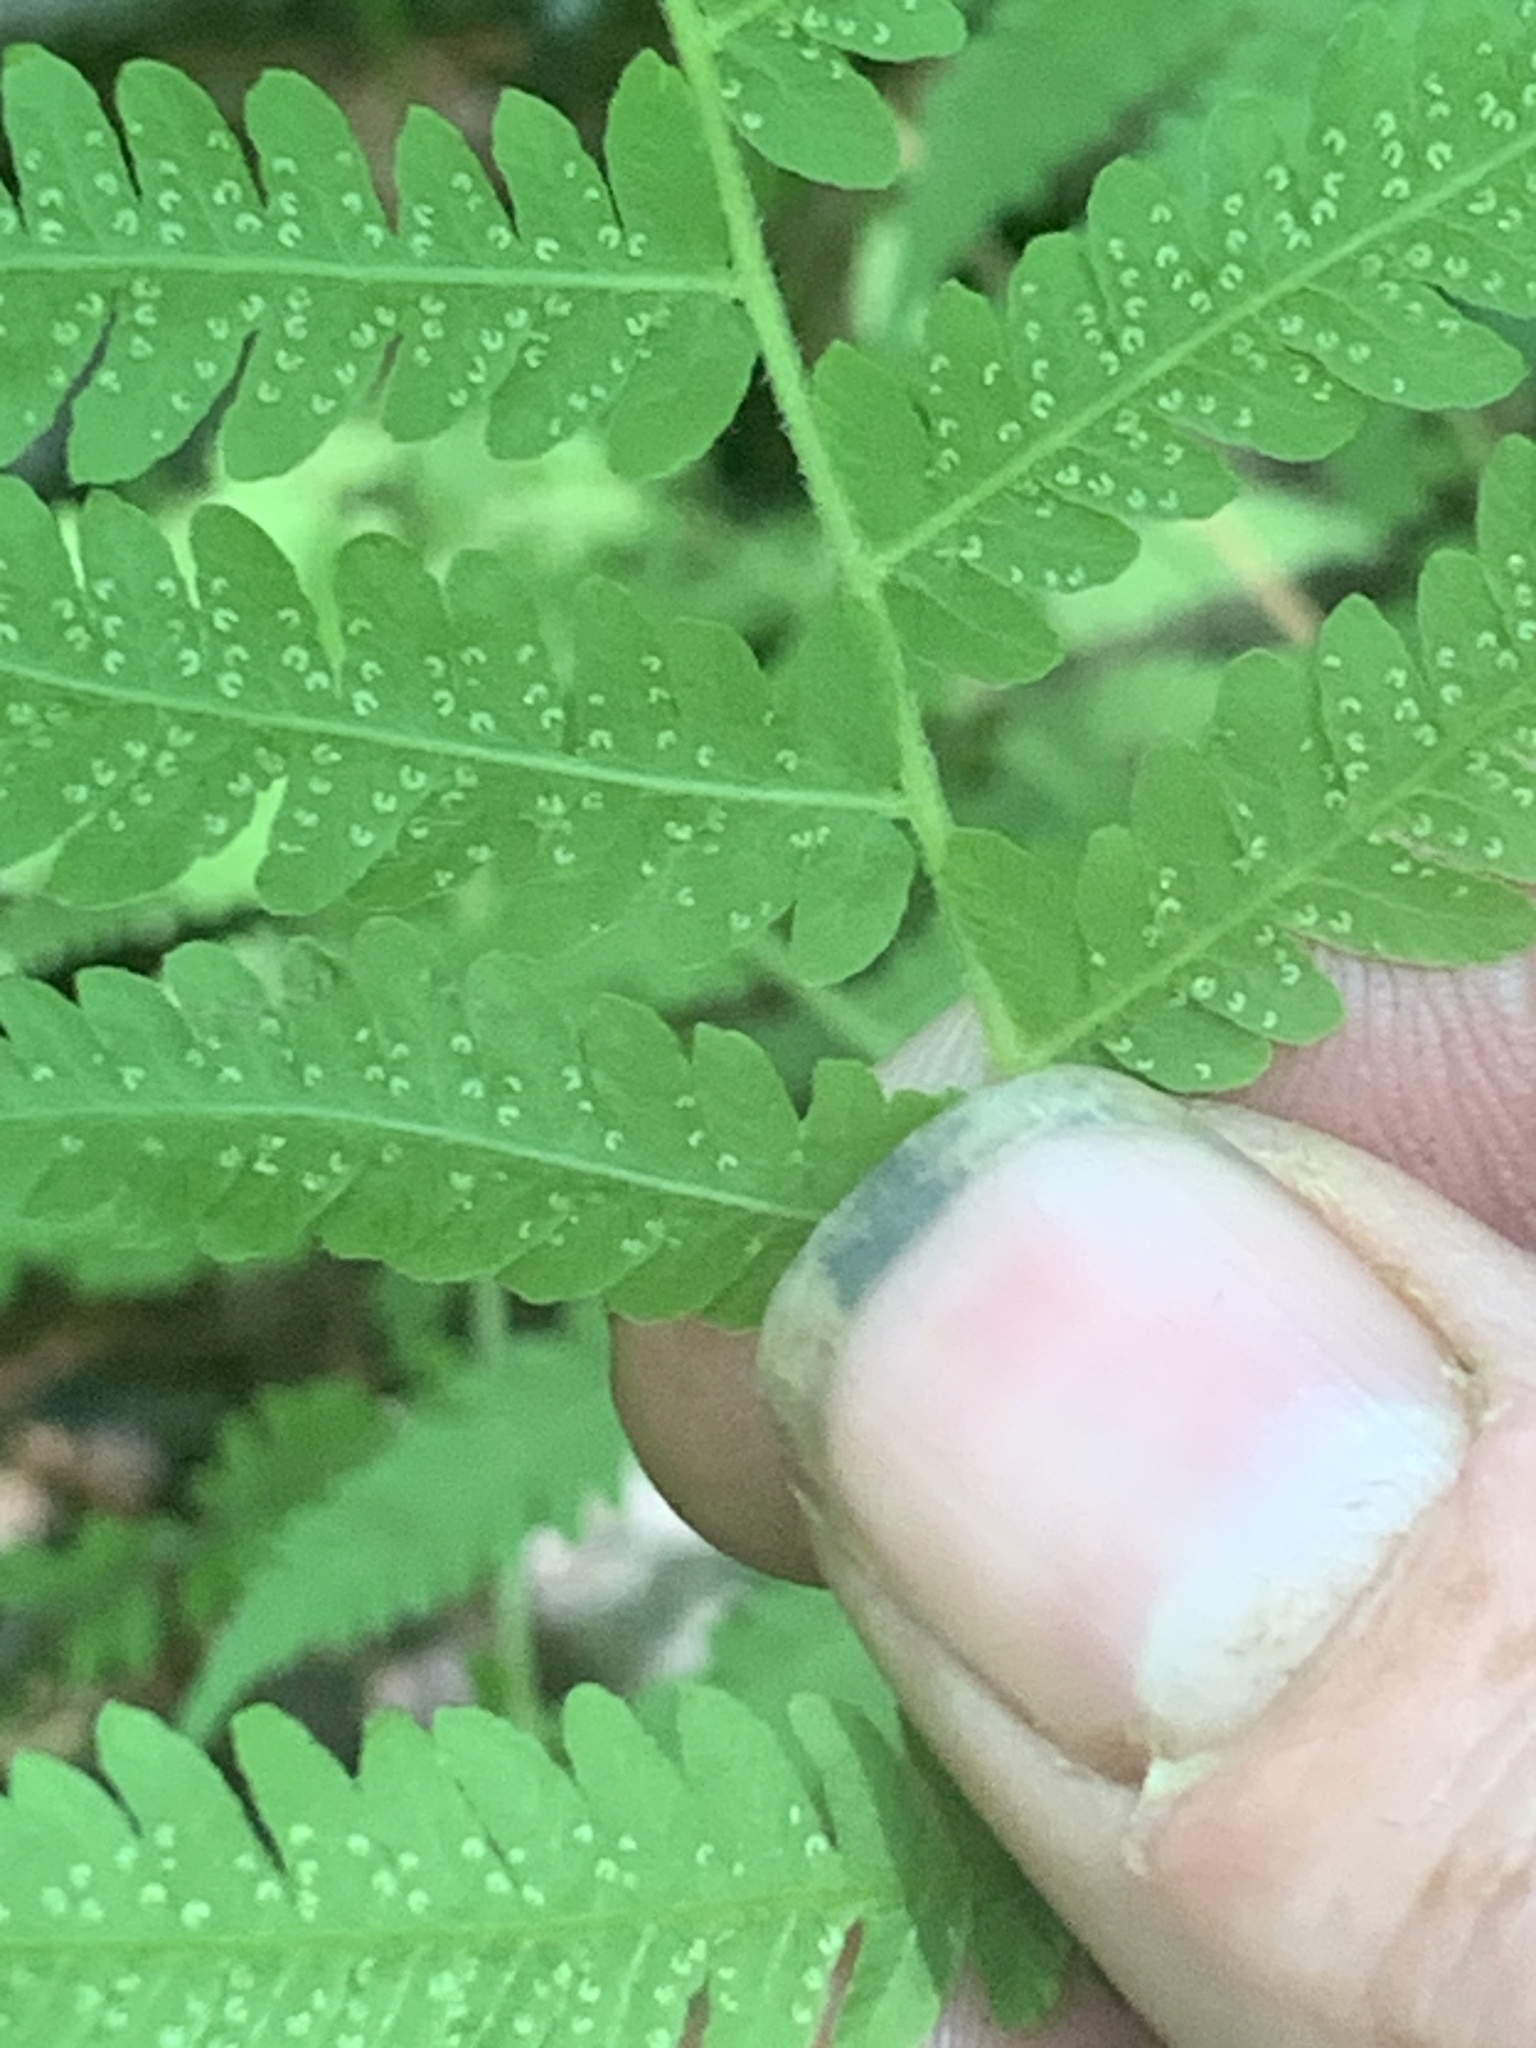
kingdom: Plantae
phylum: Tracheophyta
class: Polypodiopsida
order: Polypodiales
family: Thelypteridaceae
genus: Amauropelta
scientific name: Amauropelta noveboracensis
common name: New york fern
